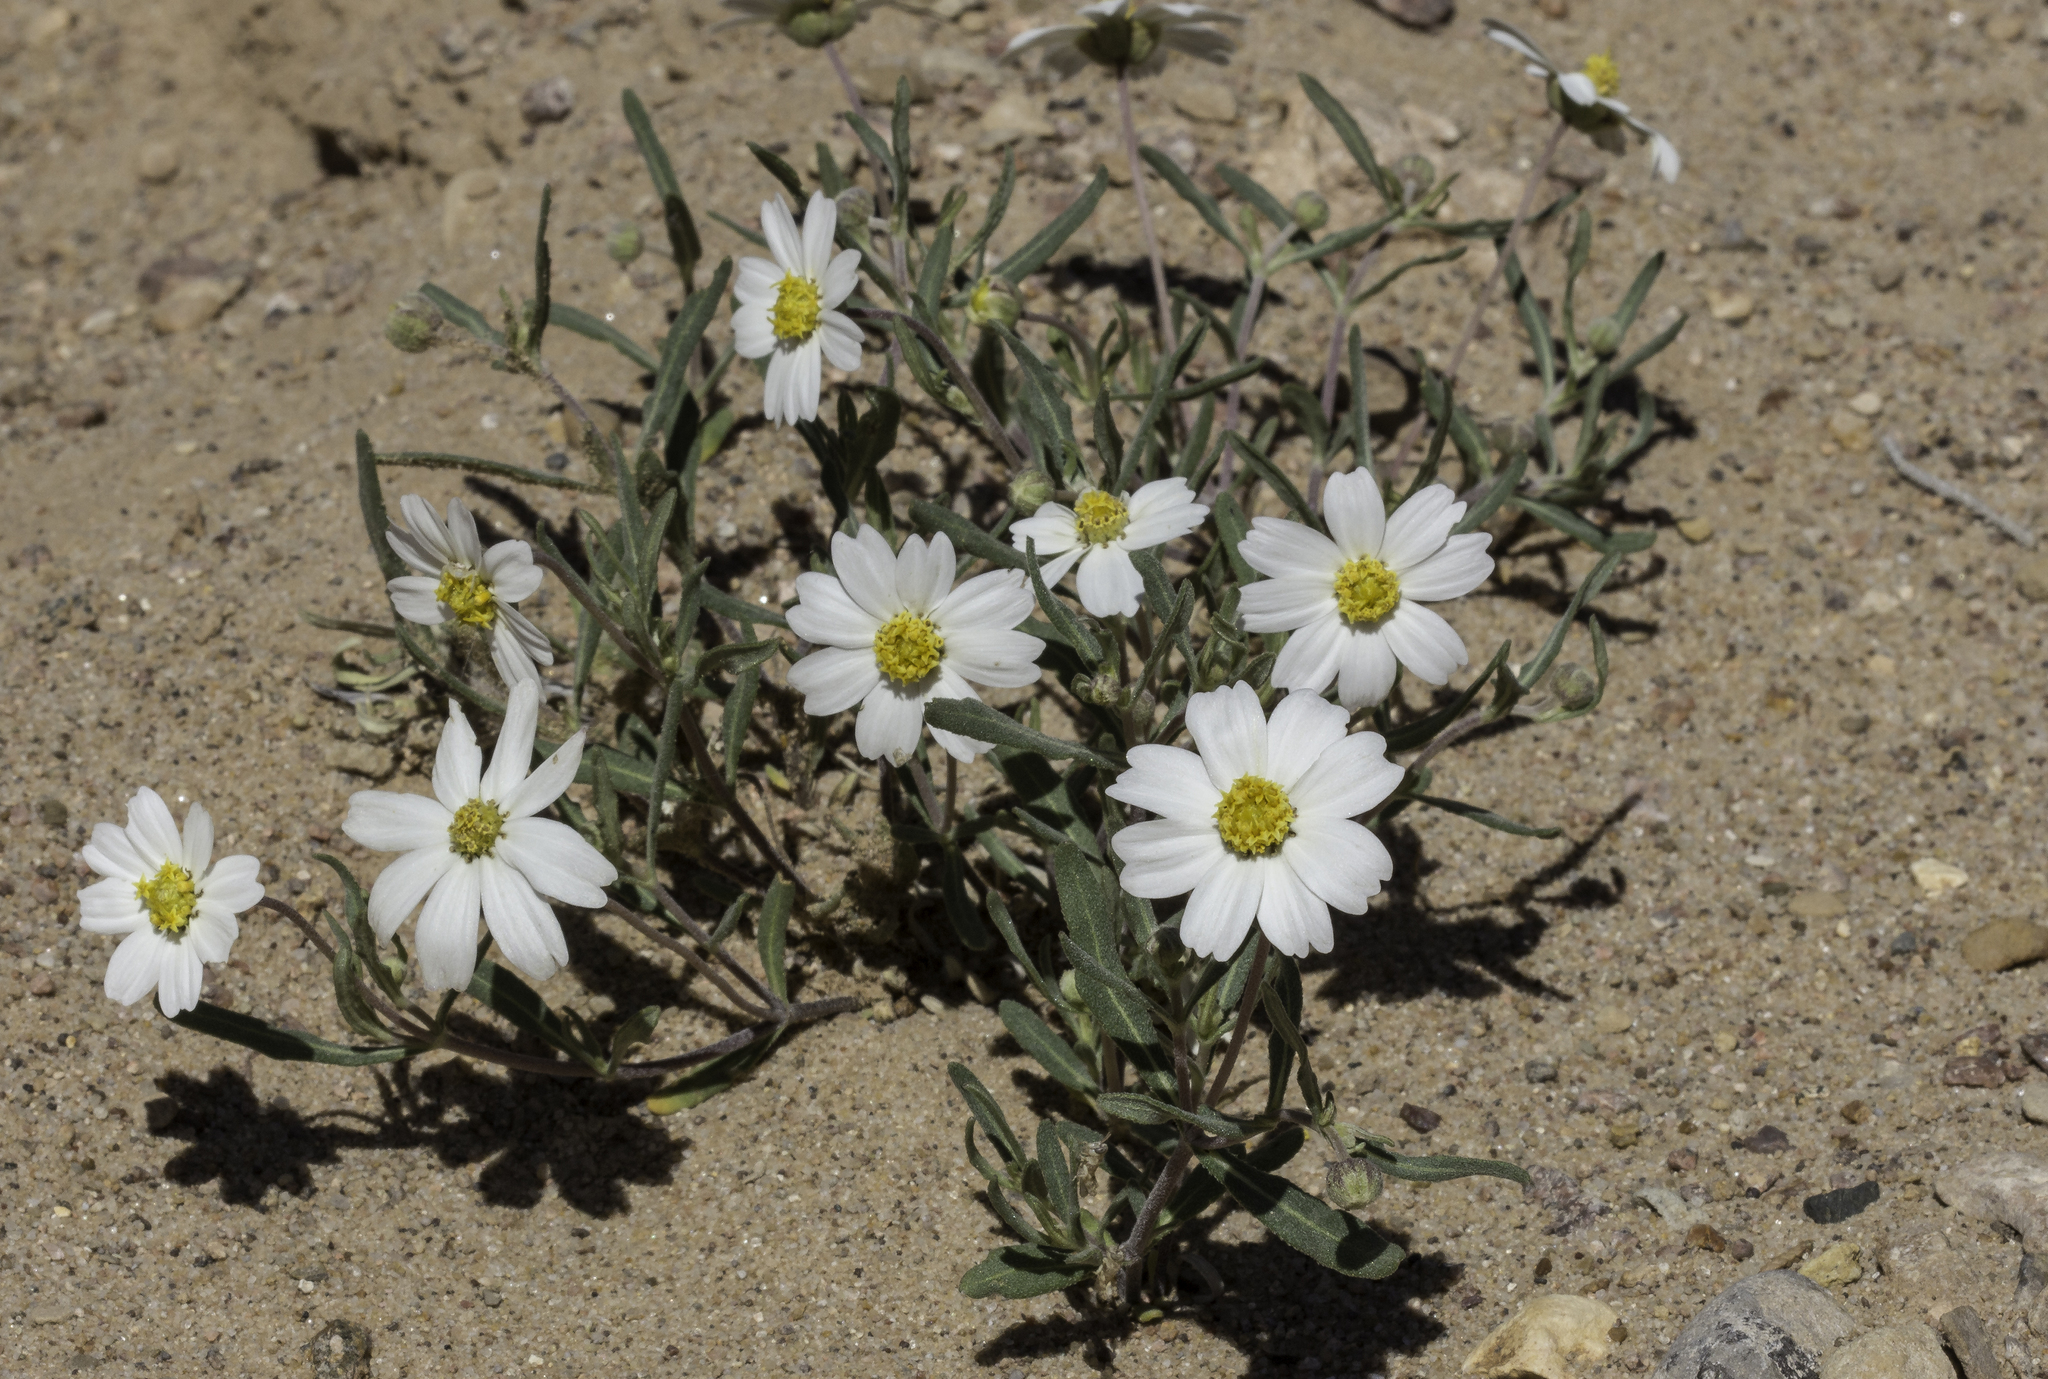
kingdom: Plantae
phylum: Tracheophyta
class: Magnoliopsida
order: Asterales
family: Asteraceae
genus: Melampodium
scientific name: Melampodium leucanthum
